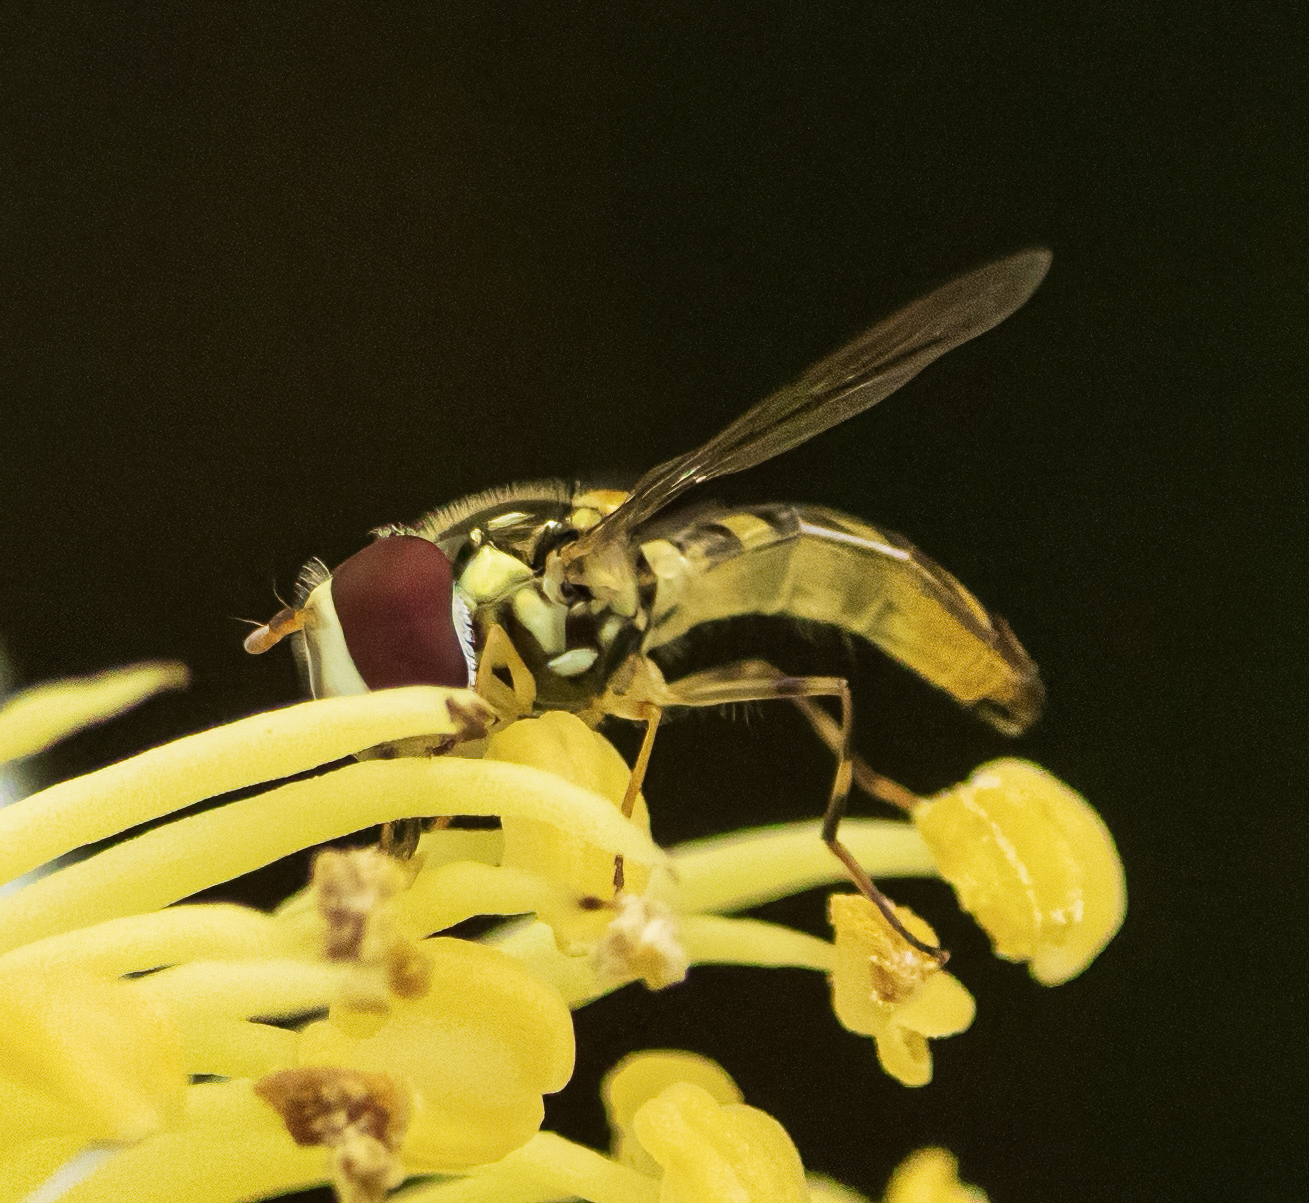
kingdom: Animalia
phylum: Arthropoda
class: Insecta
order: Diptera
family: Syrphidae
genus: Allograpta
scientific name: Allograpta obliqua
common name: Common oblique syrphid
